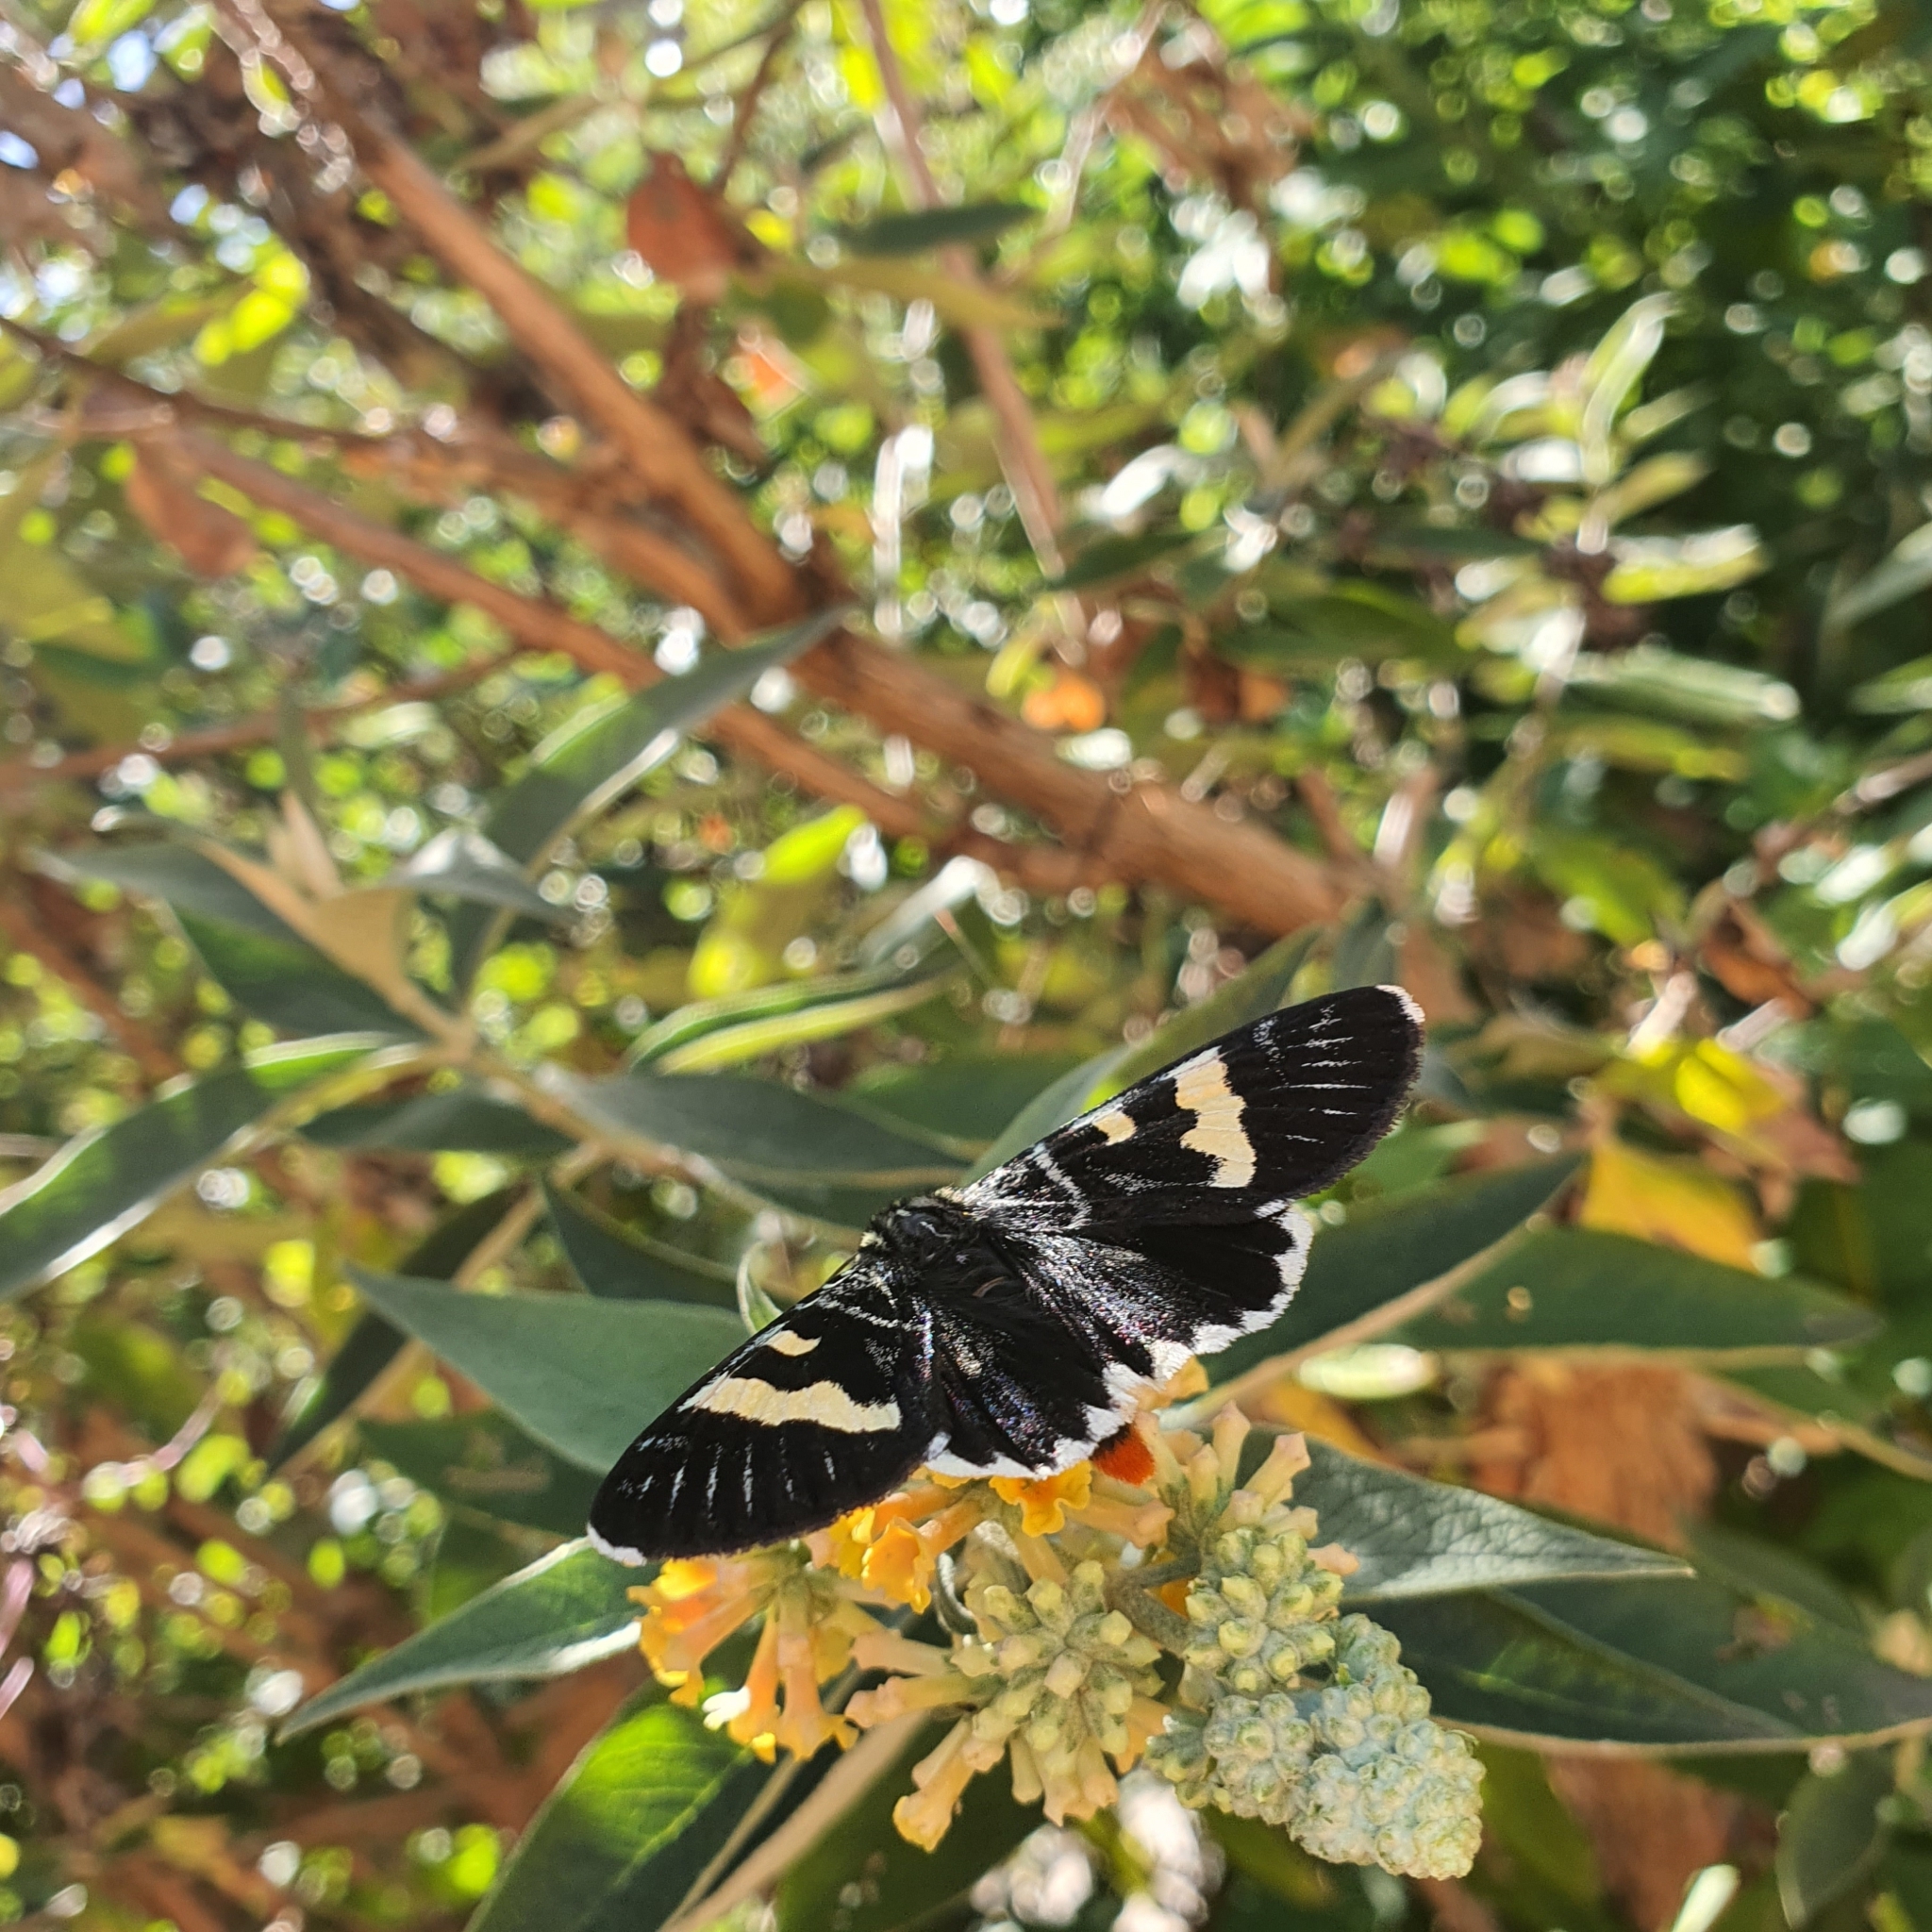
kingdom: Animalia
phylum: Arthropoda
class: Insecta
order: Lepidoptera
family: Noctuidae
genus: Phalaenoides
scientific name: Phalaenoides glycinae
